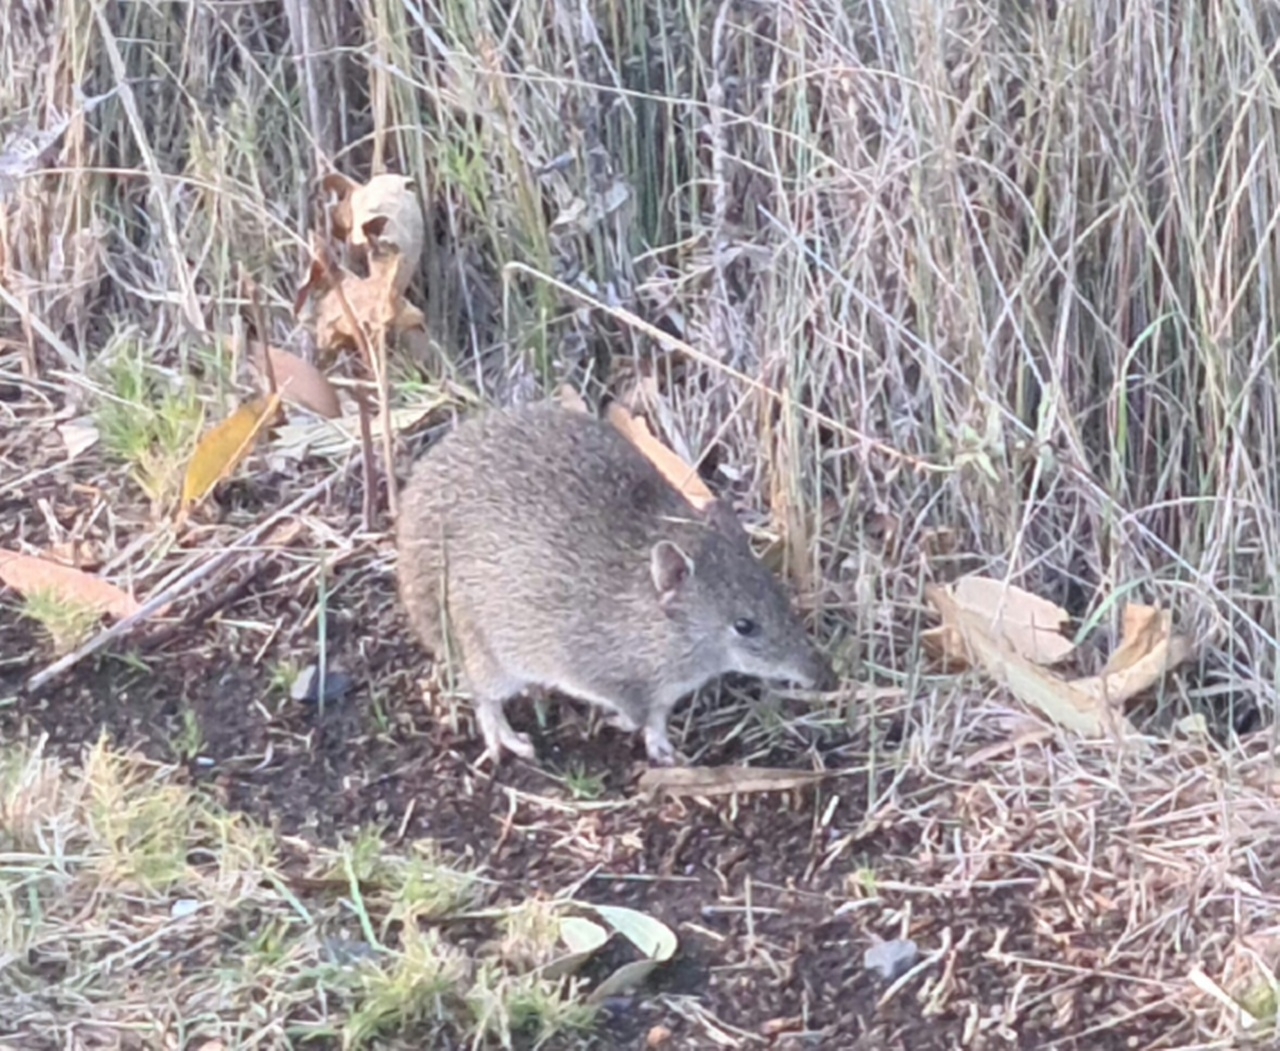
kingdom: Animalia
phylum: Chordata
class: Mammalia
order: Peramelemorphia
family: Peramelidae
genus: Isoodon
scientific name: Isoodon obesulus
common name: Southern brown bandicoot
